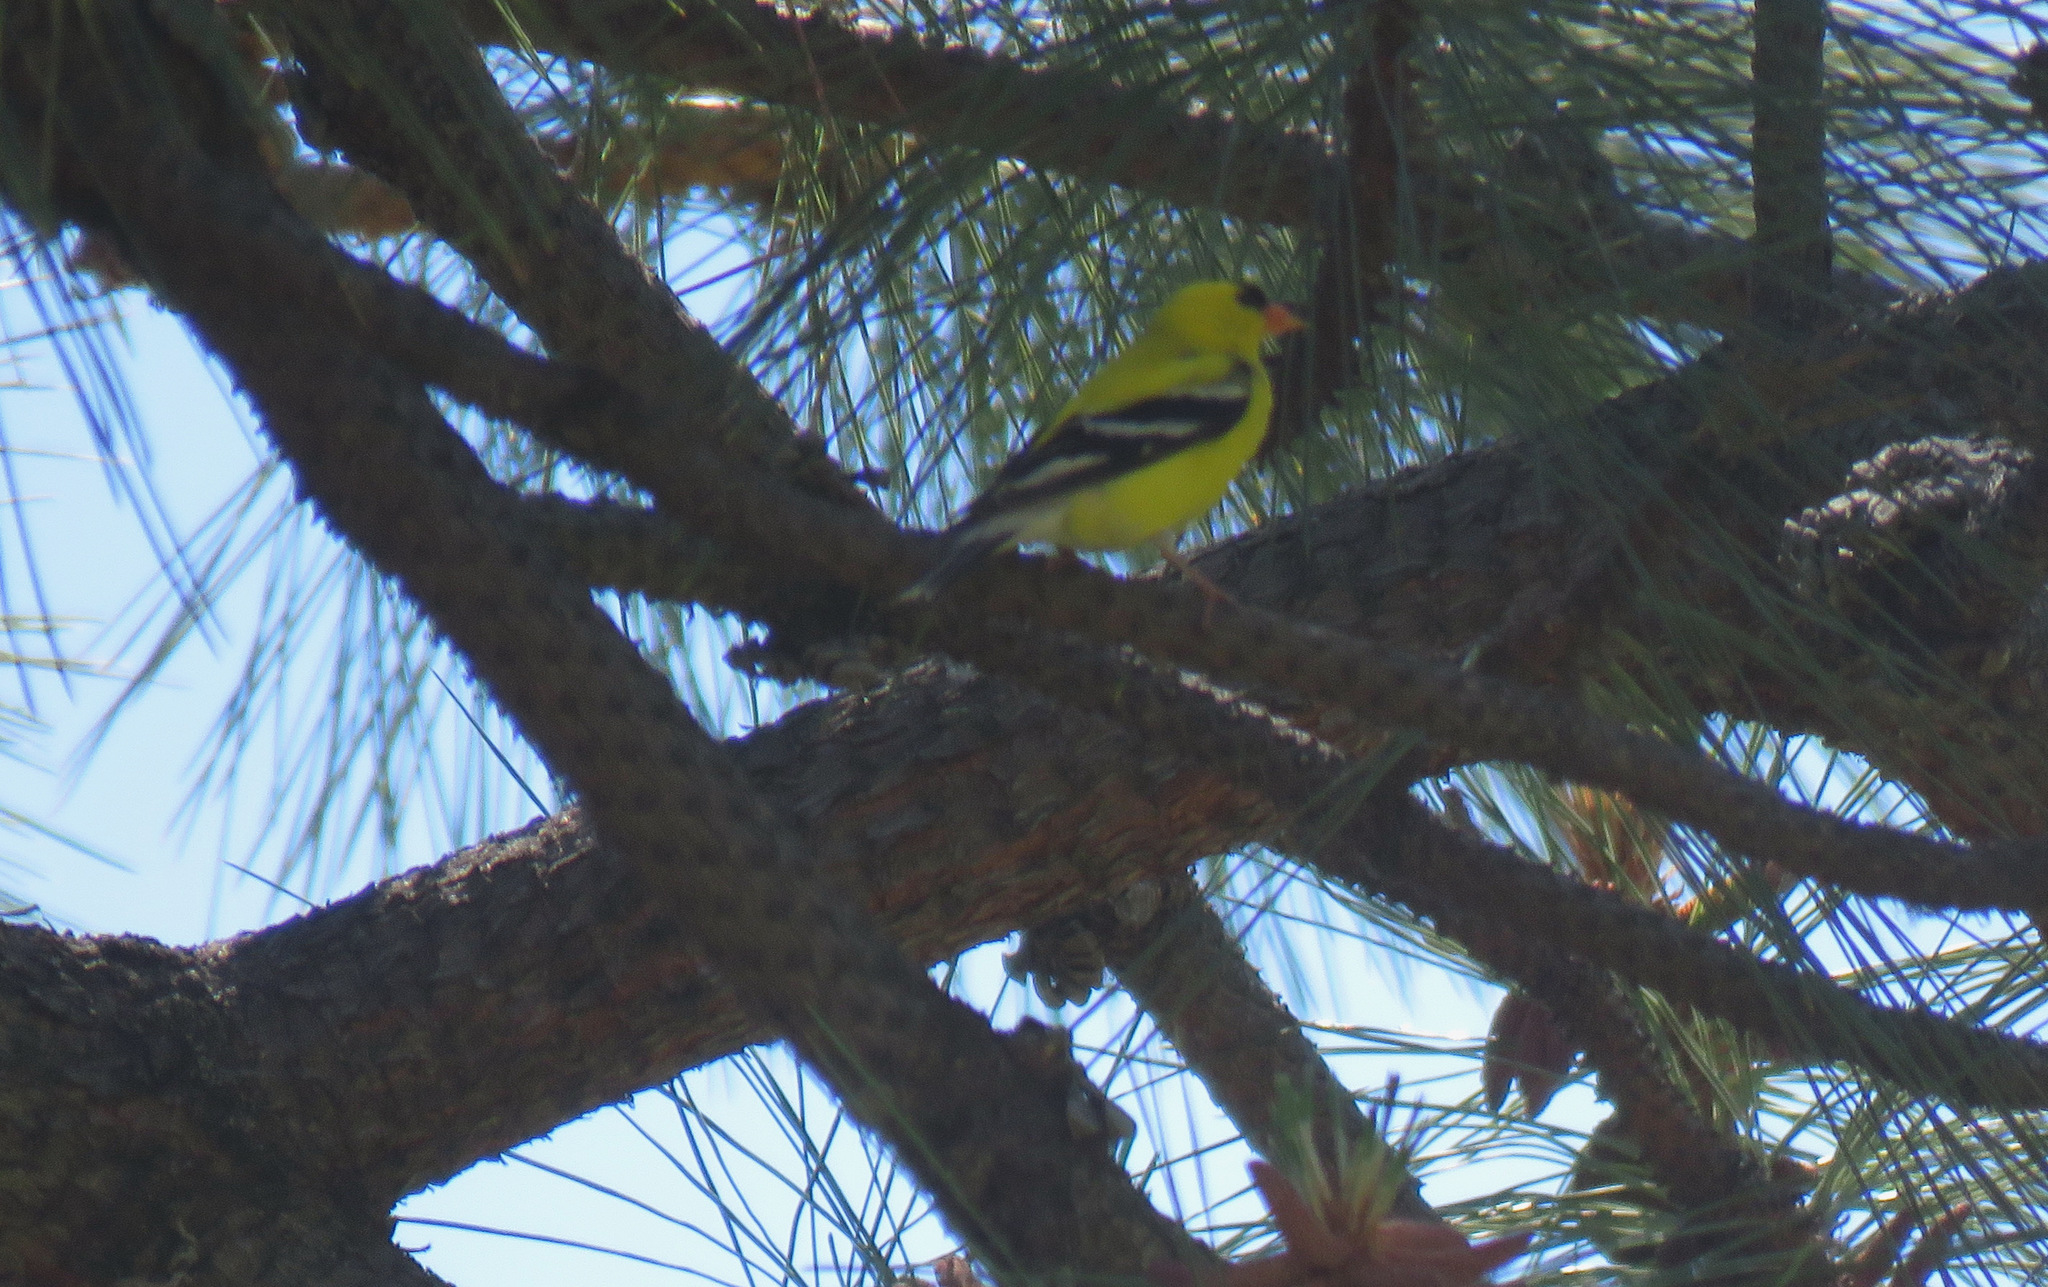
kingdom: Animalia
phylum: Chordata
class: Aves
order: Passeriformes
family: Fringillidae
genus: Spinus
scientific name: Spinus tristis
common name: American goldfinch
